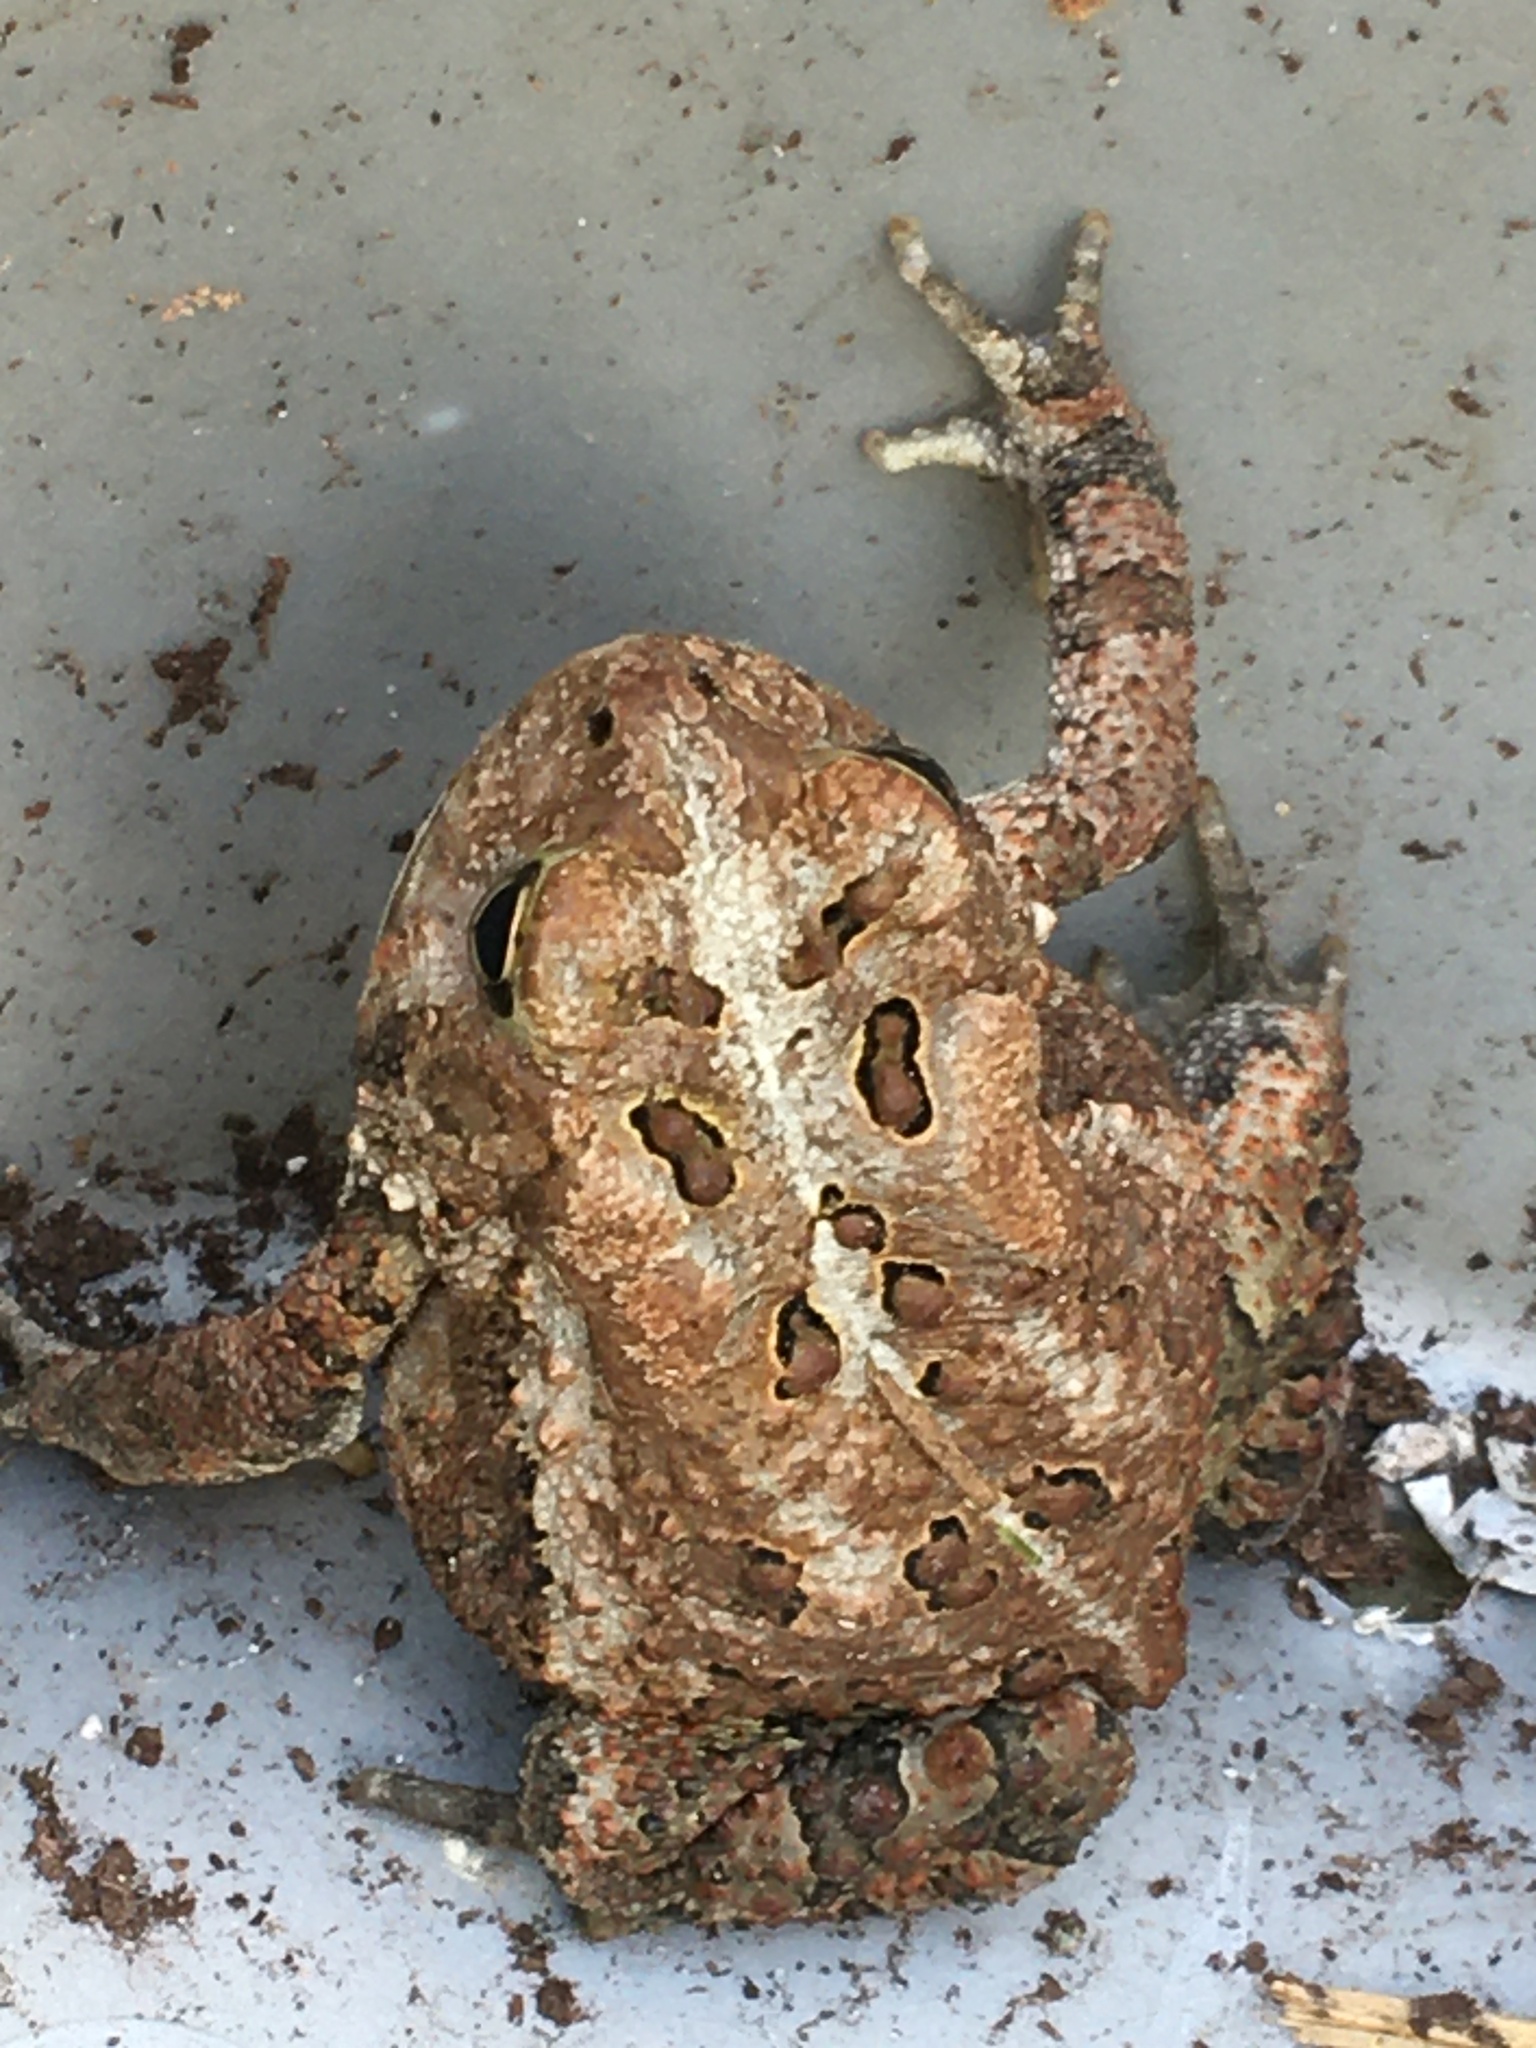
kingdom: Animalia
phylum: Chordata
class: Amphibia
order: Anura
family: Bufonidae
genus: Anaxyrus
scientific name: Anaxyrus americanus
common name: American toad
